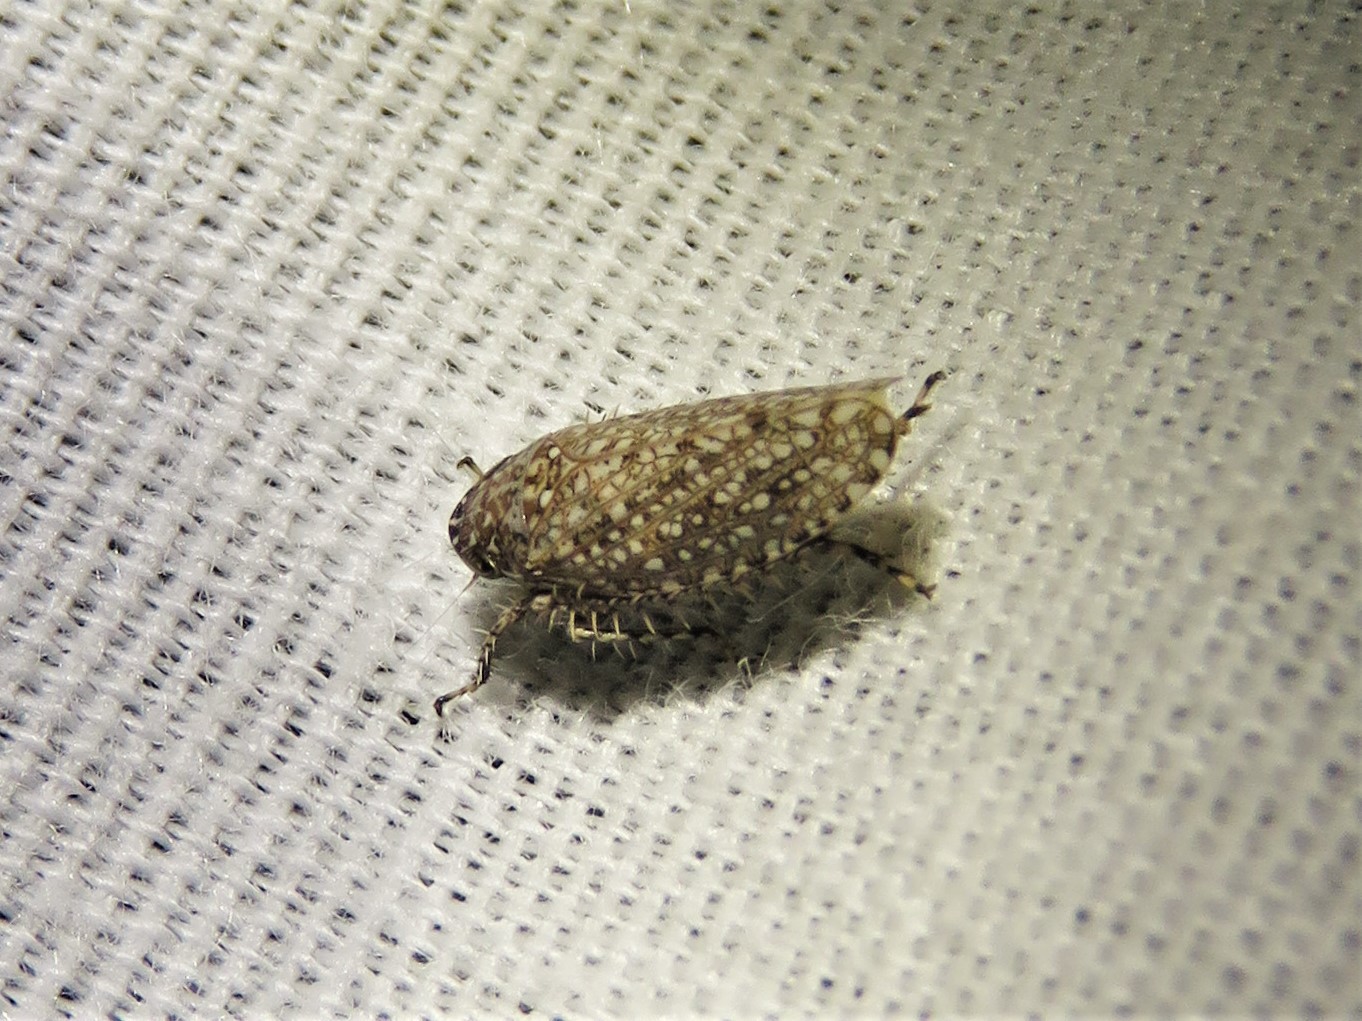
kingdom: Animalia
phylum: Arthropoda
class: Insecta
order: Hemiptera
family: Cicadellidae
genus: Texananus
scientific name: Texananus areolatus
